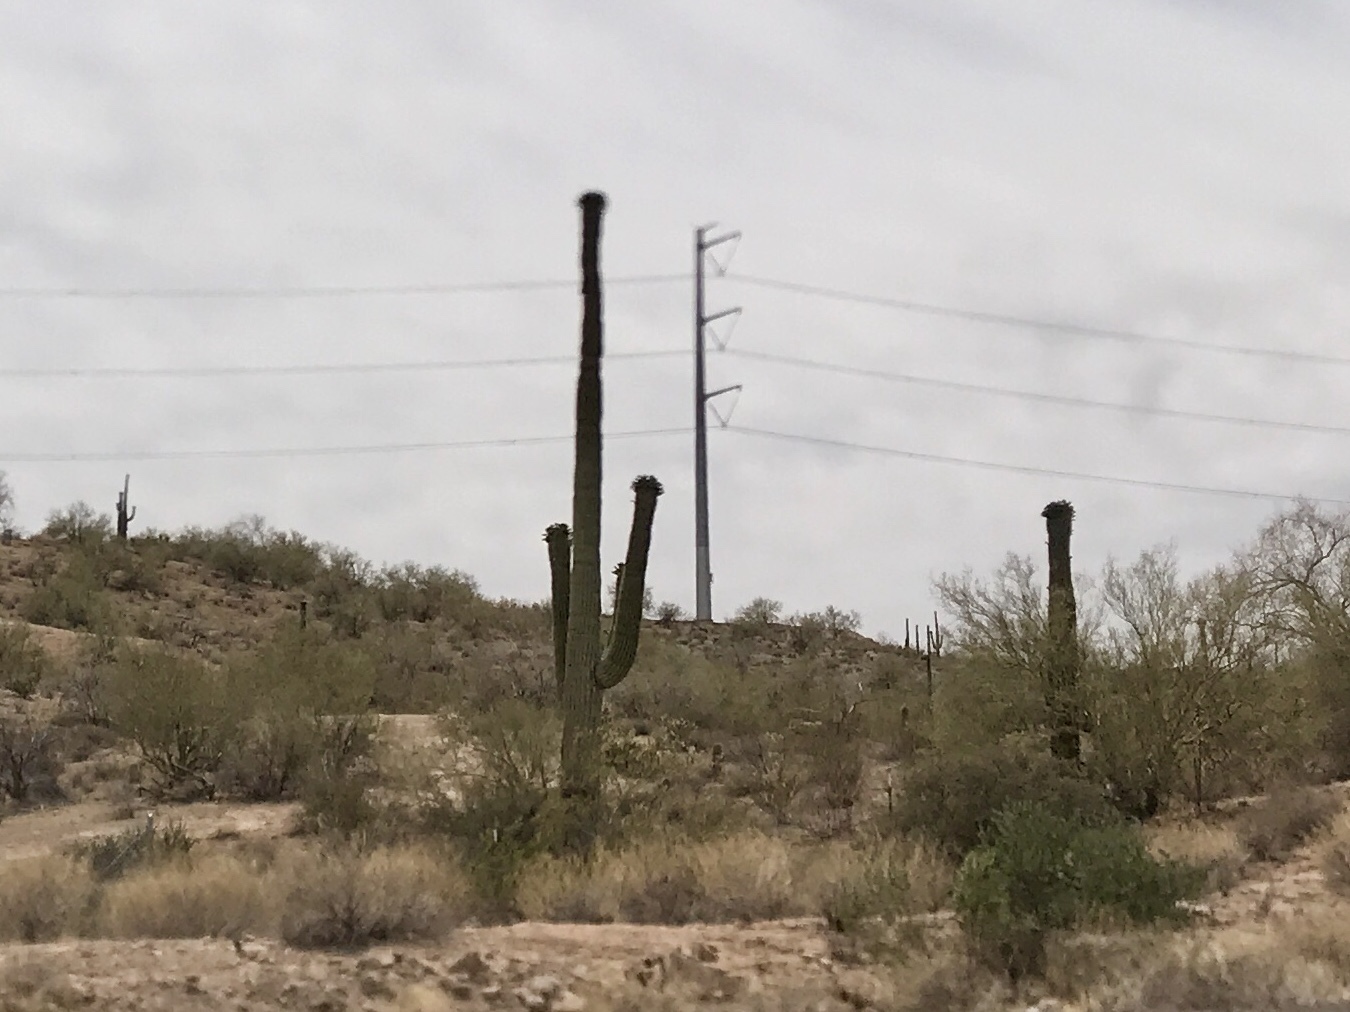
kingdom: Plantae
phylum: Tracheophyta
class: Magnoliopsida
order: Caryophyllales
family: Cactaceae
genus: Carnegiea
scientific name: Carnegiea gigantea
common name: Saguaro
